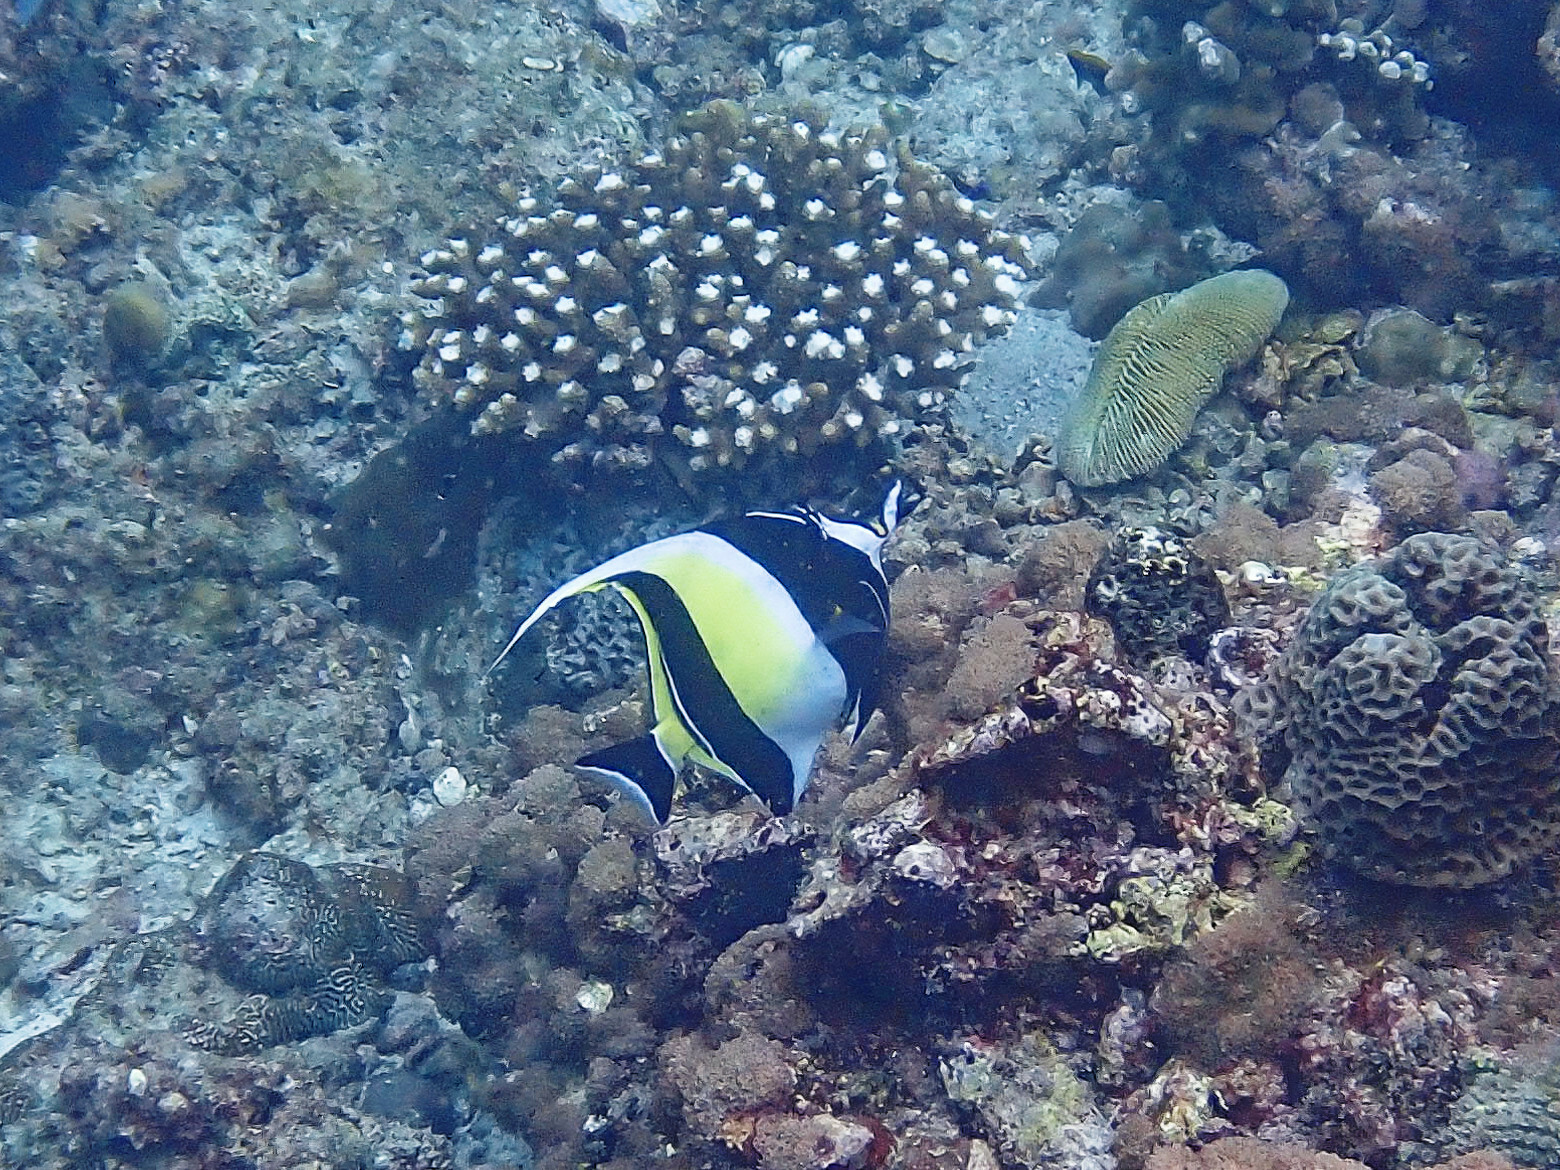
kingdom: Animalia
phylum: Chordata
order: Perciformes
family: Zanclidae
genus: Zanclus
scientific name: Zanclus cornutus
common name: Moorish idol
